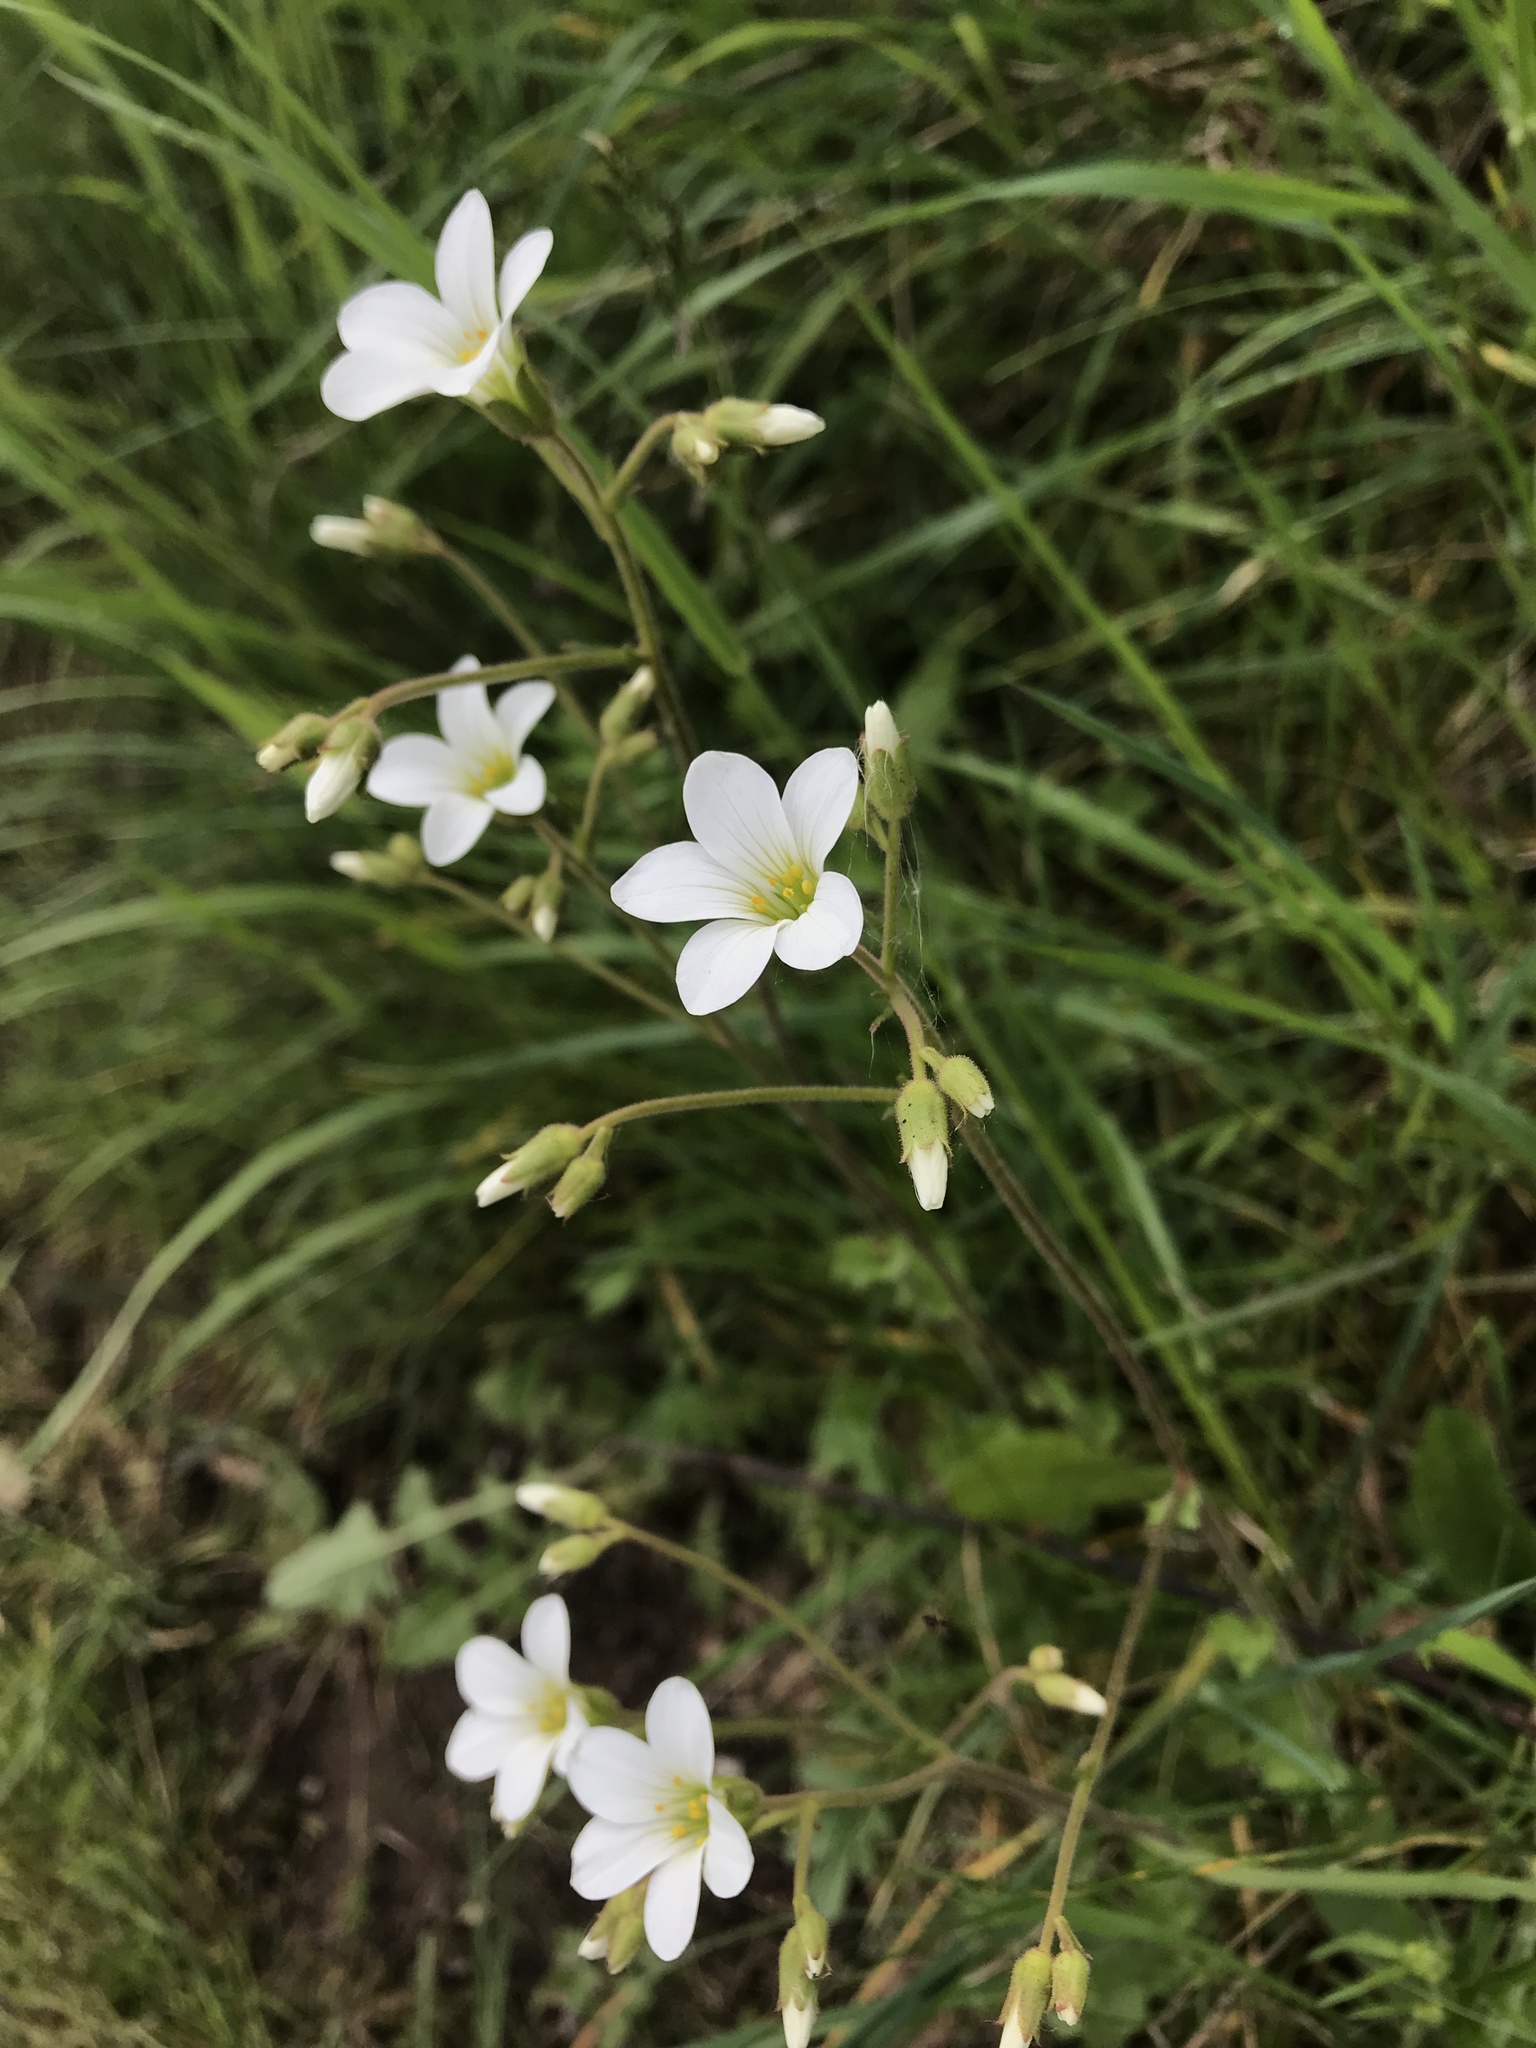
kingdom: Plantae
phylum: Tracheophyta
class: Magnoliopsida
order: Saxifragales
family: Saxifragaceae
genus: Saxifraga
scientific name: Saxifraga granulata
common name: Meadow saxifrage
